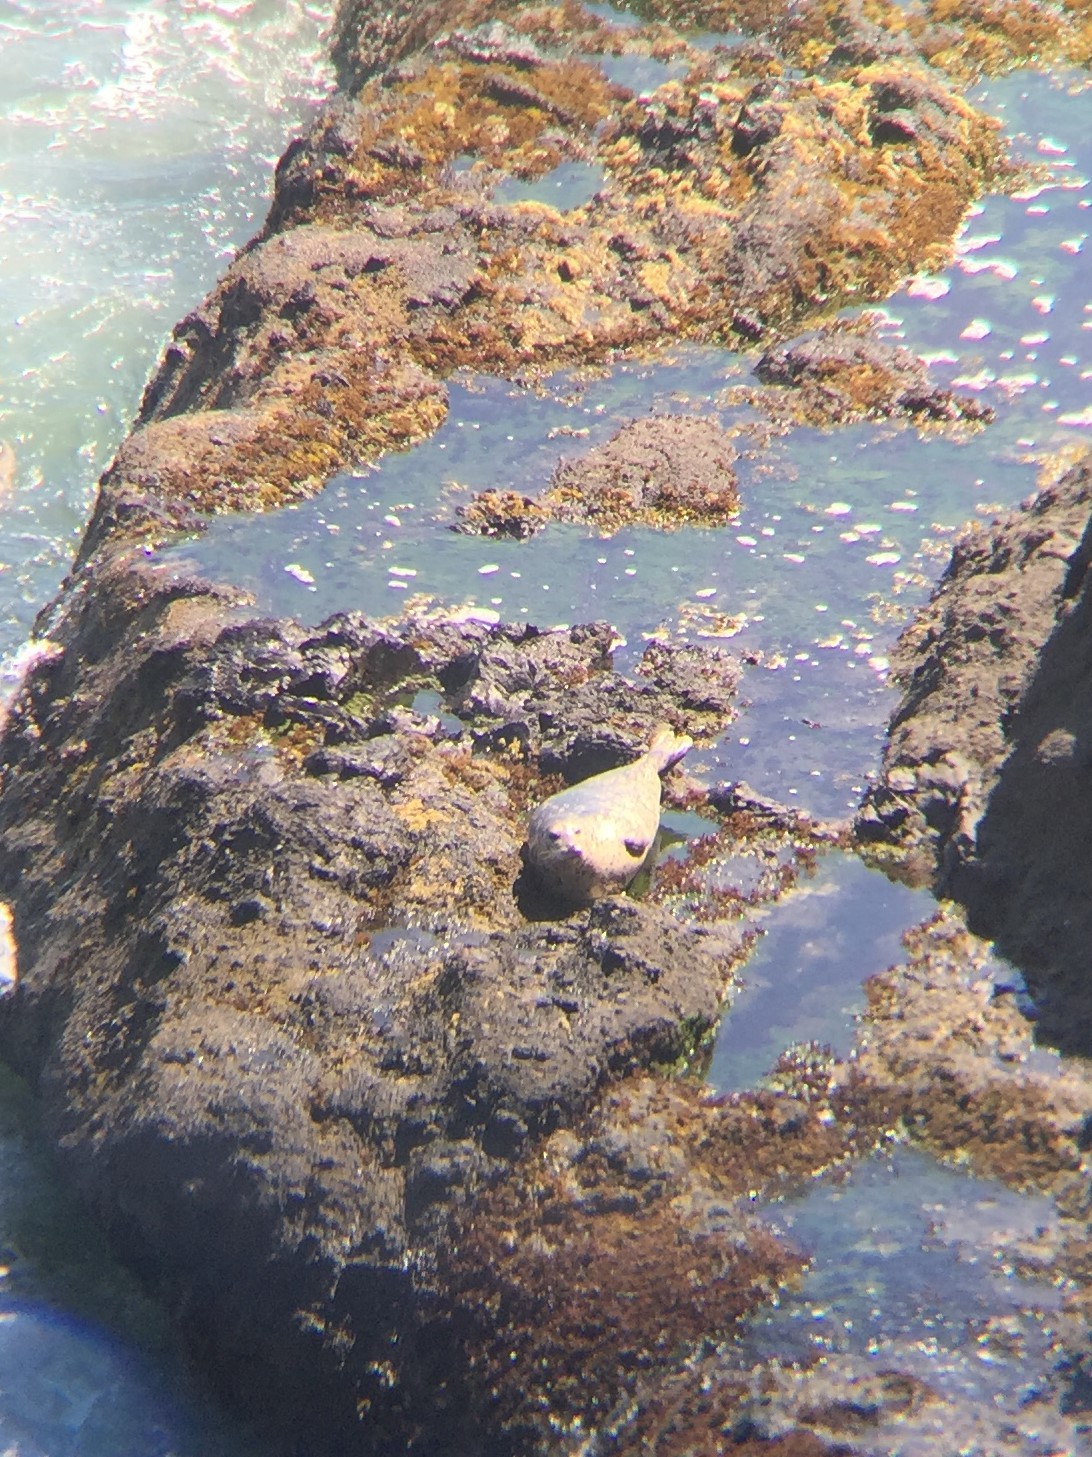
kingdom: Animalia
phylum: Chordata
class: Mammalia
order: Carnivora
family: Phocidae
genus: Phoca
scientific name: Phoca vitulina
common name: Harbor seal
